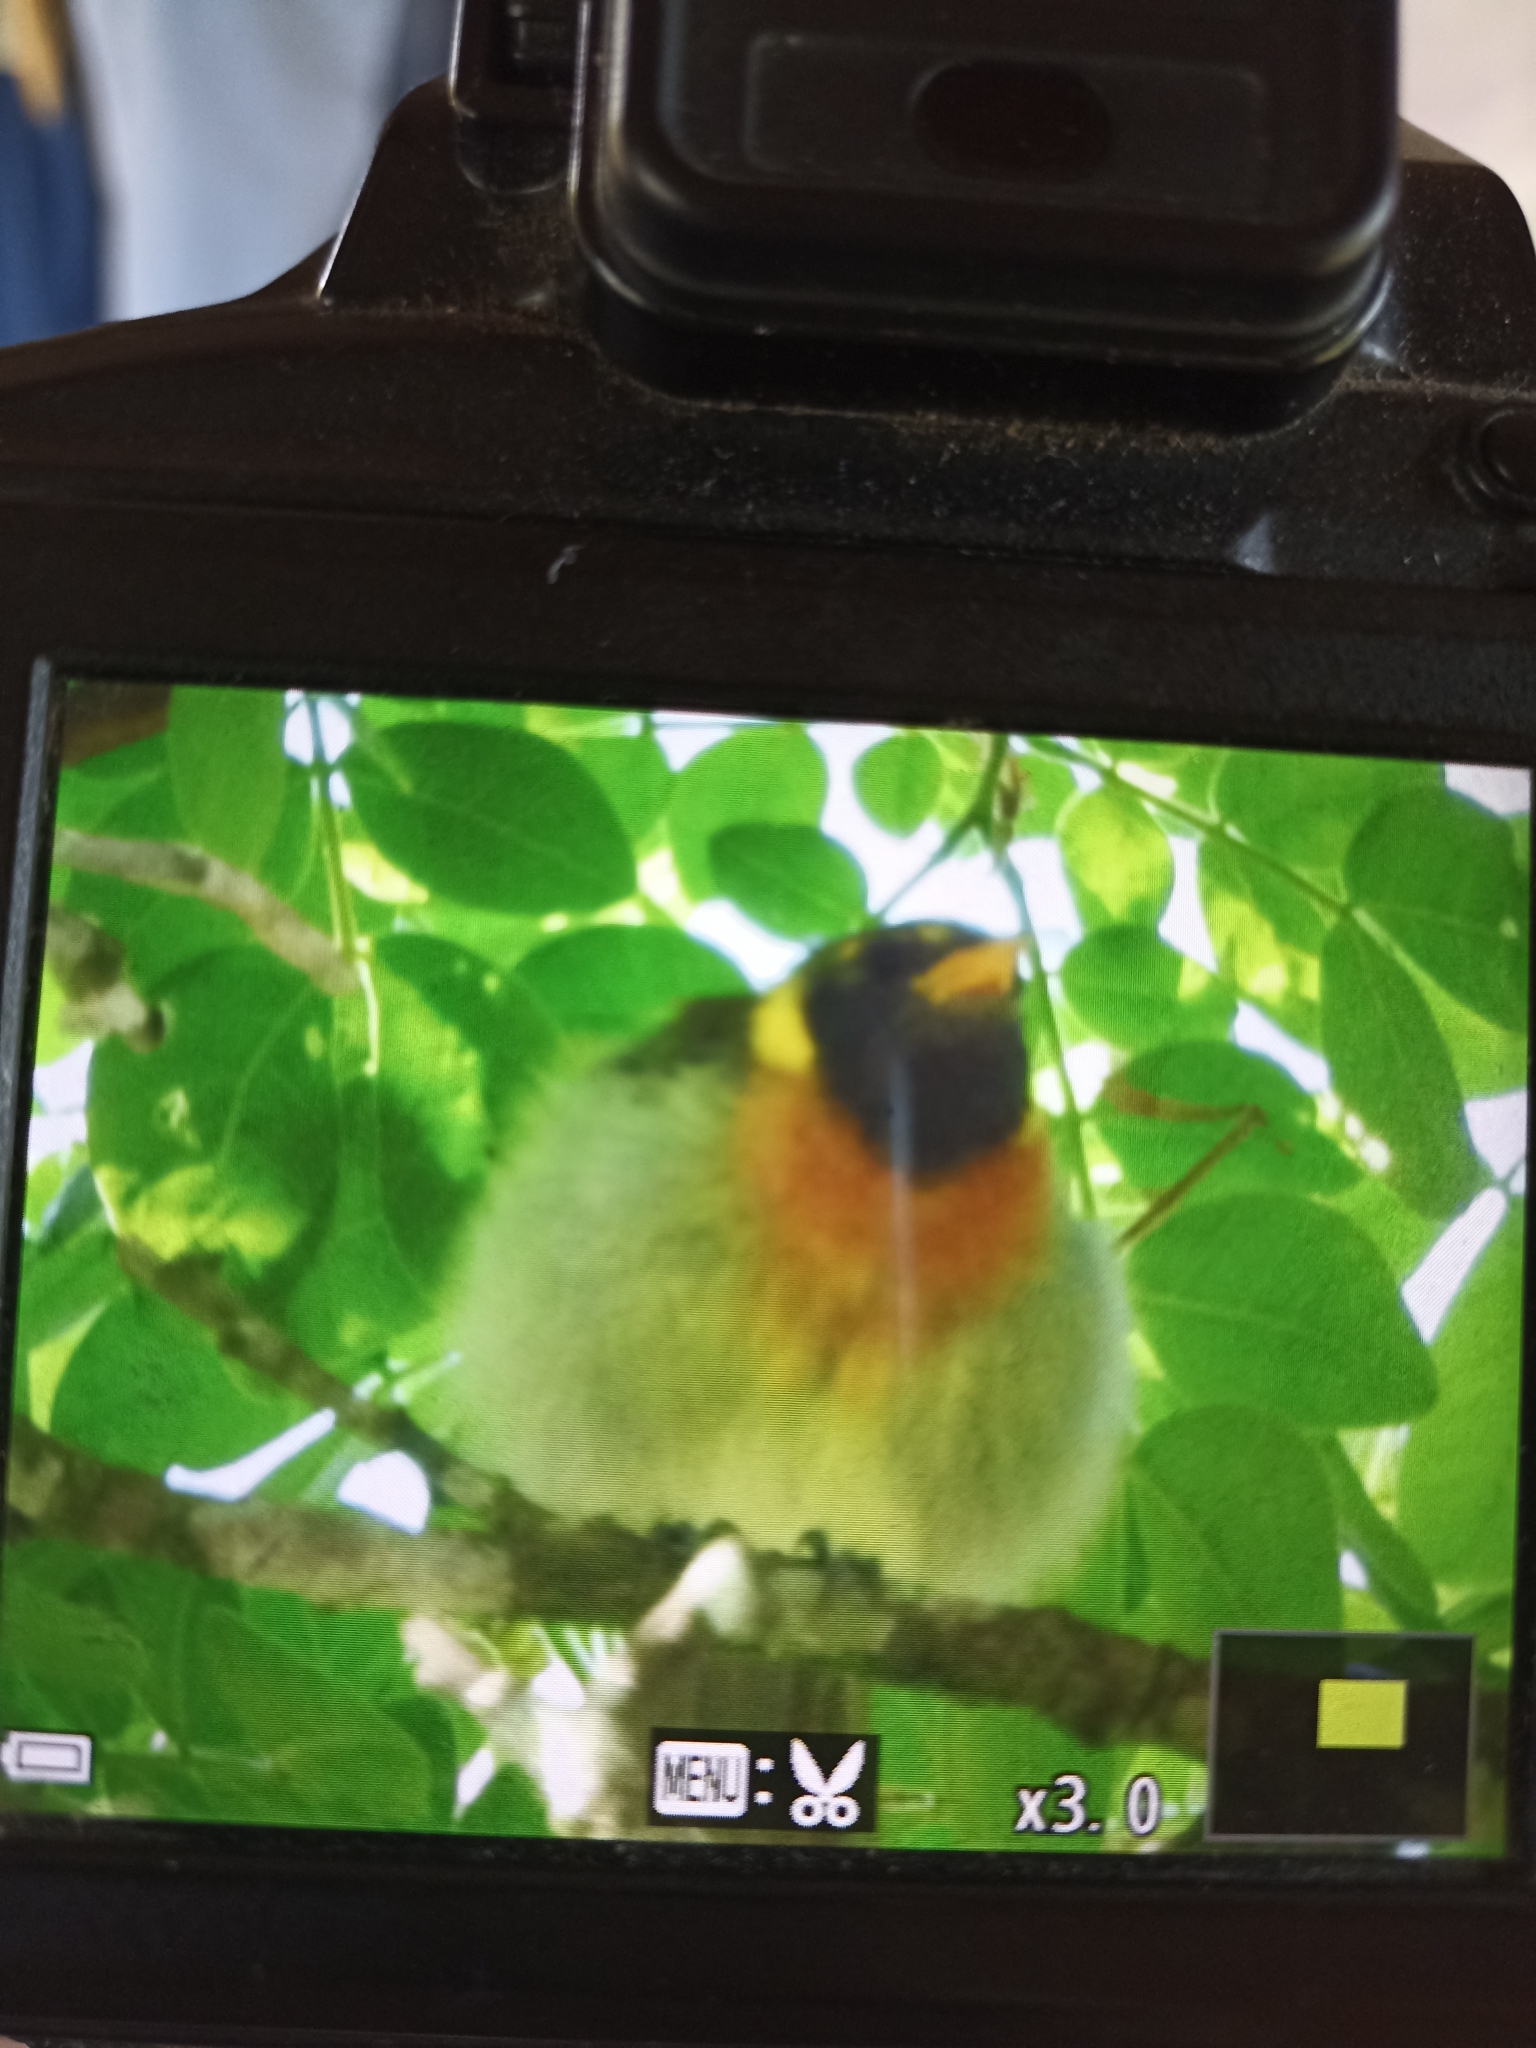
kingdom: Animalia
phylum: Chordata
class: Aves
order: Passeriformes
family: Thraupidae
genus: Hemithraupis
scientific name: Hemithraupis guira
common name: Guira tanager
